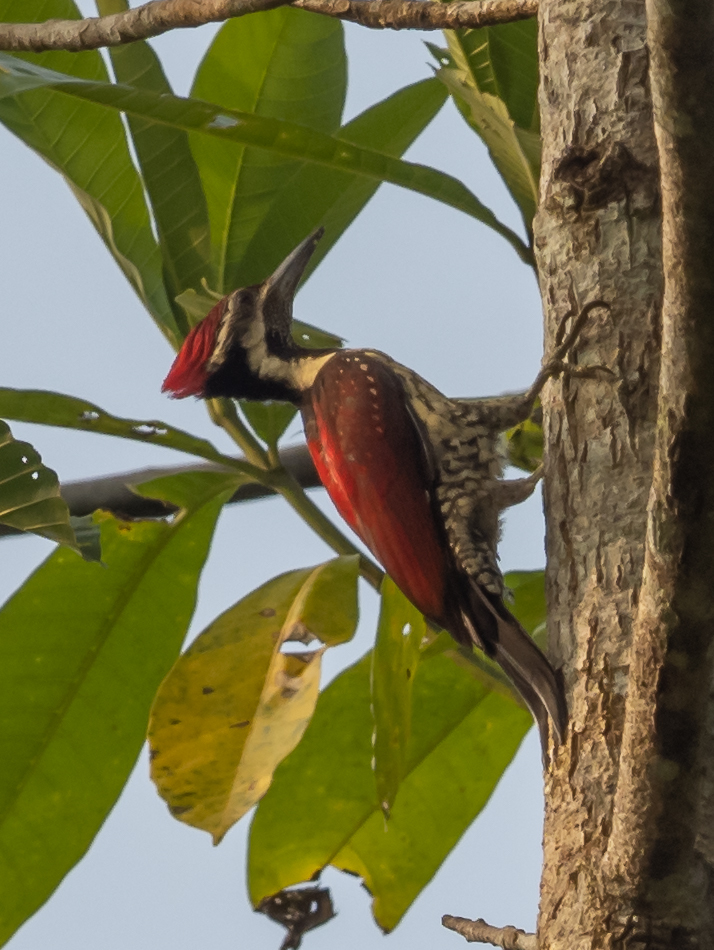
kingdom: Animalia
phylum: Chordata
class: Aves
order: Piciformes
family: Picidae
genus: Dinopium
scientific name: Dinopium psarodes
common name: Red-backed flameback
